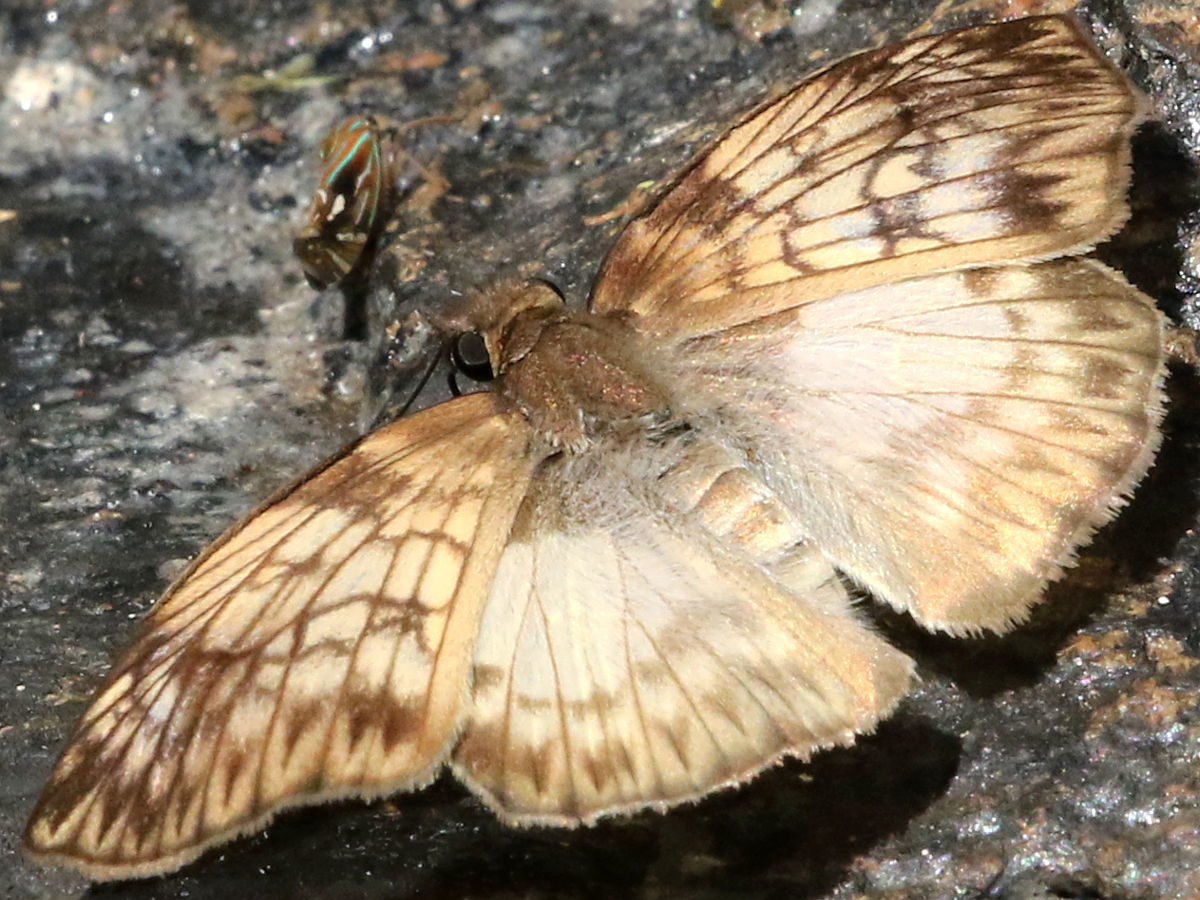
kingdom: Animalia
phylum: Arthropoda
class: Insecta
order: Lepidoptera
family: Hesperiidae
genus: Mylon
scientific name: Mylon maimon
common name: Common mylon
